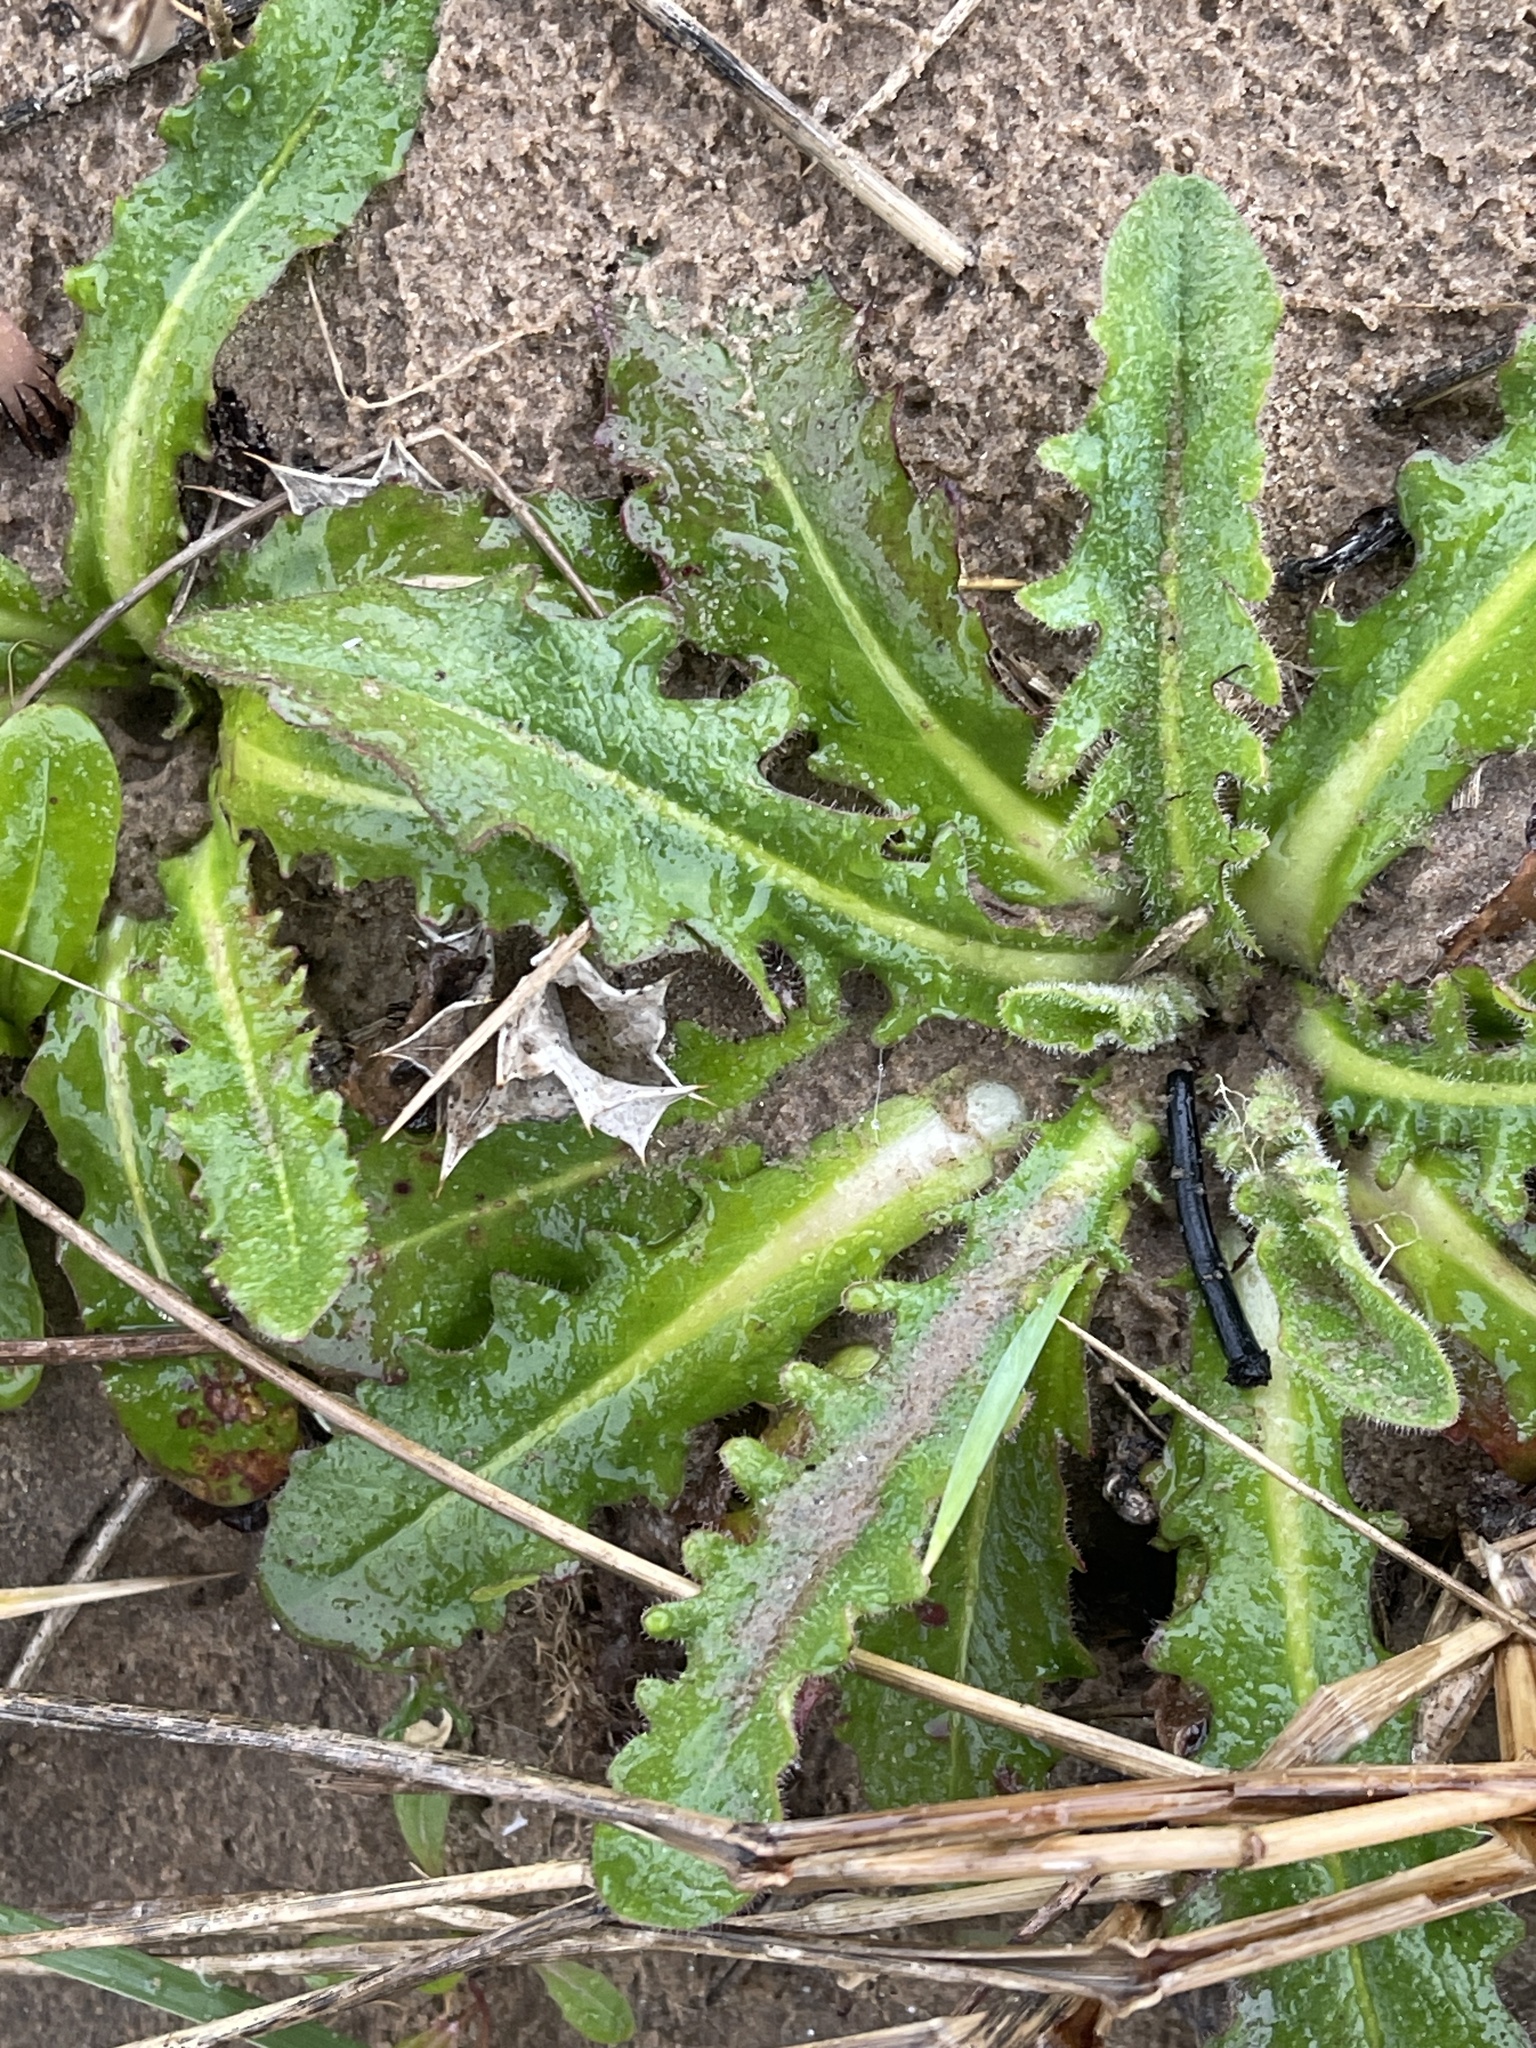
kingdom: Plantae
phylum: Tracheophyta
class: Magnoliopsida
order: Asterales
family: Asteraceae
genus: Hypochaeris
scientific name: Hypochaeris radicata
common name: Flatweed
